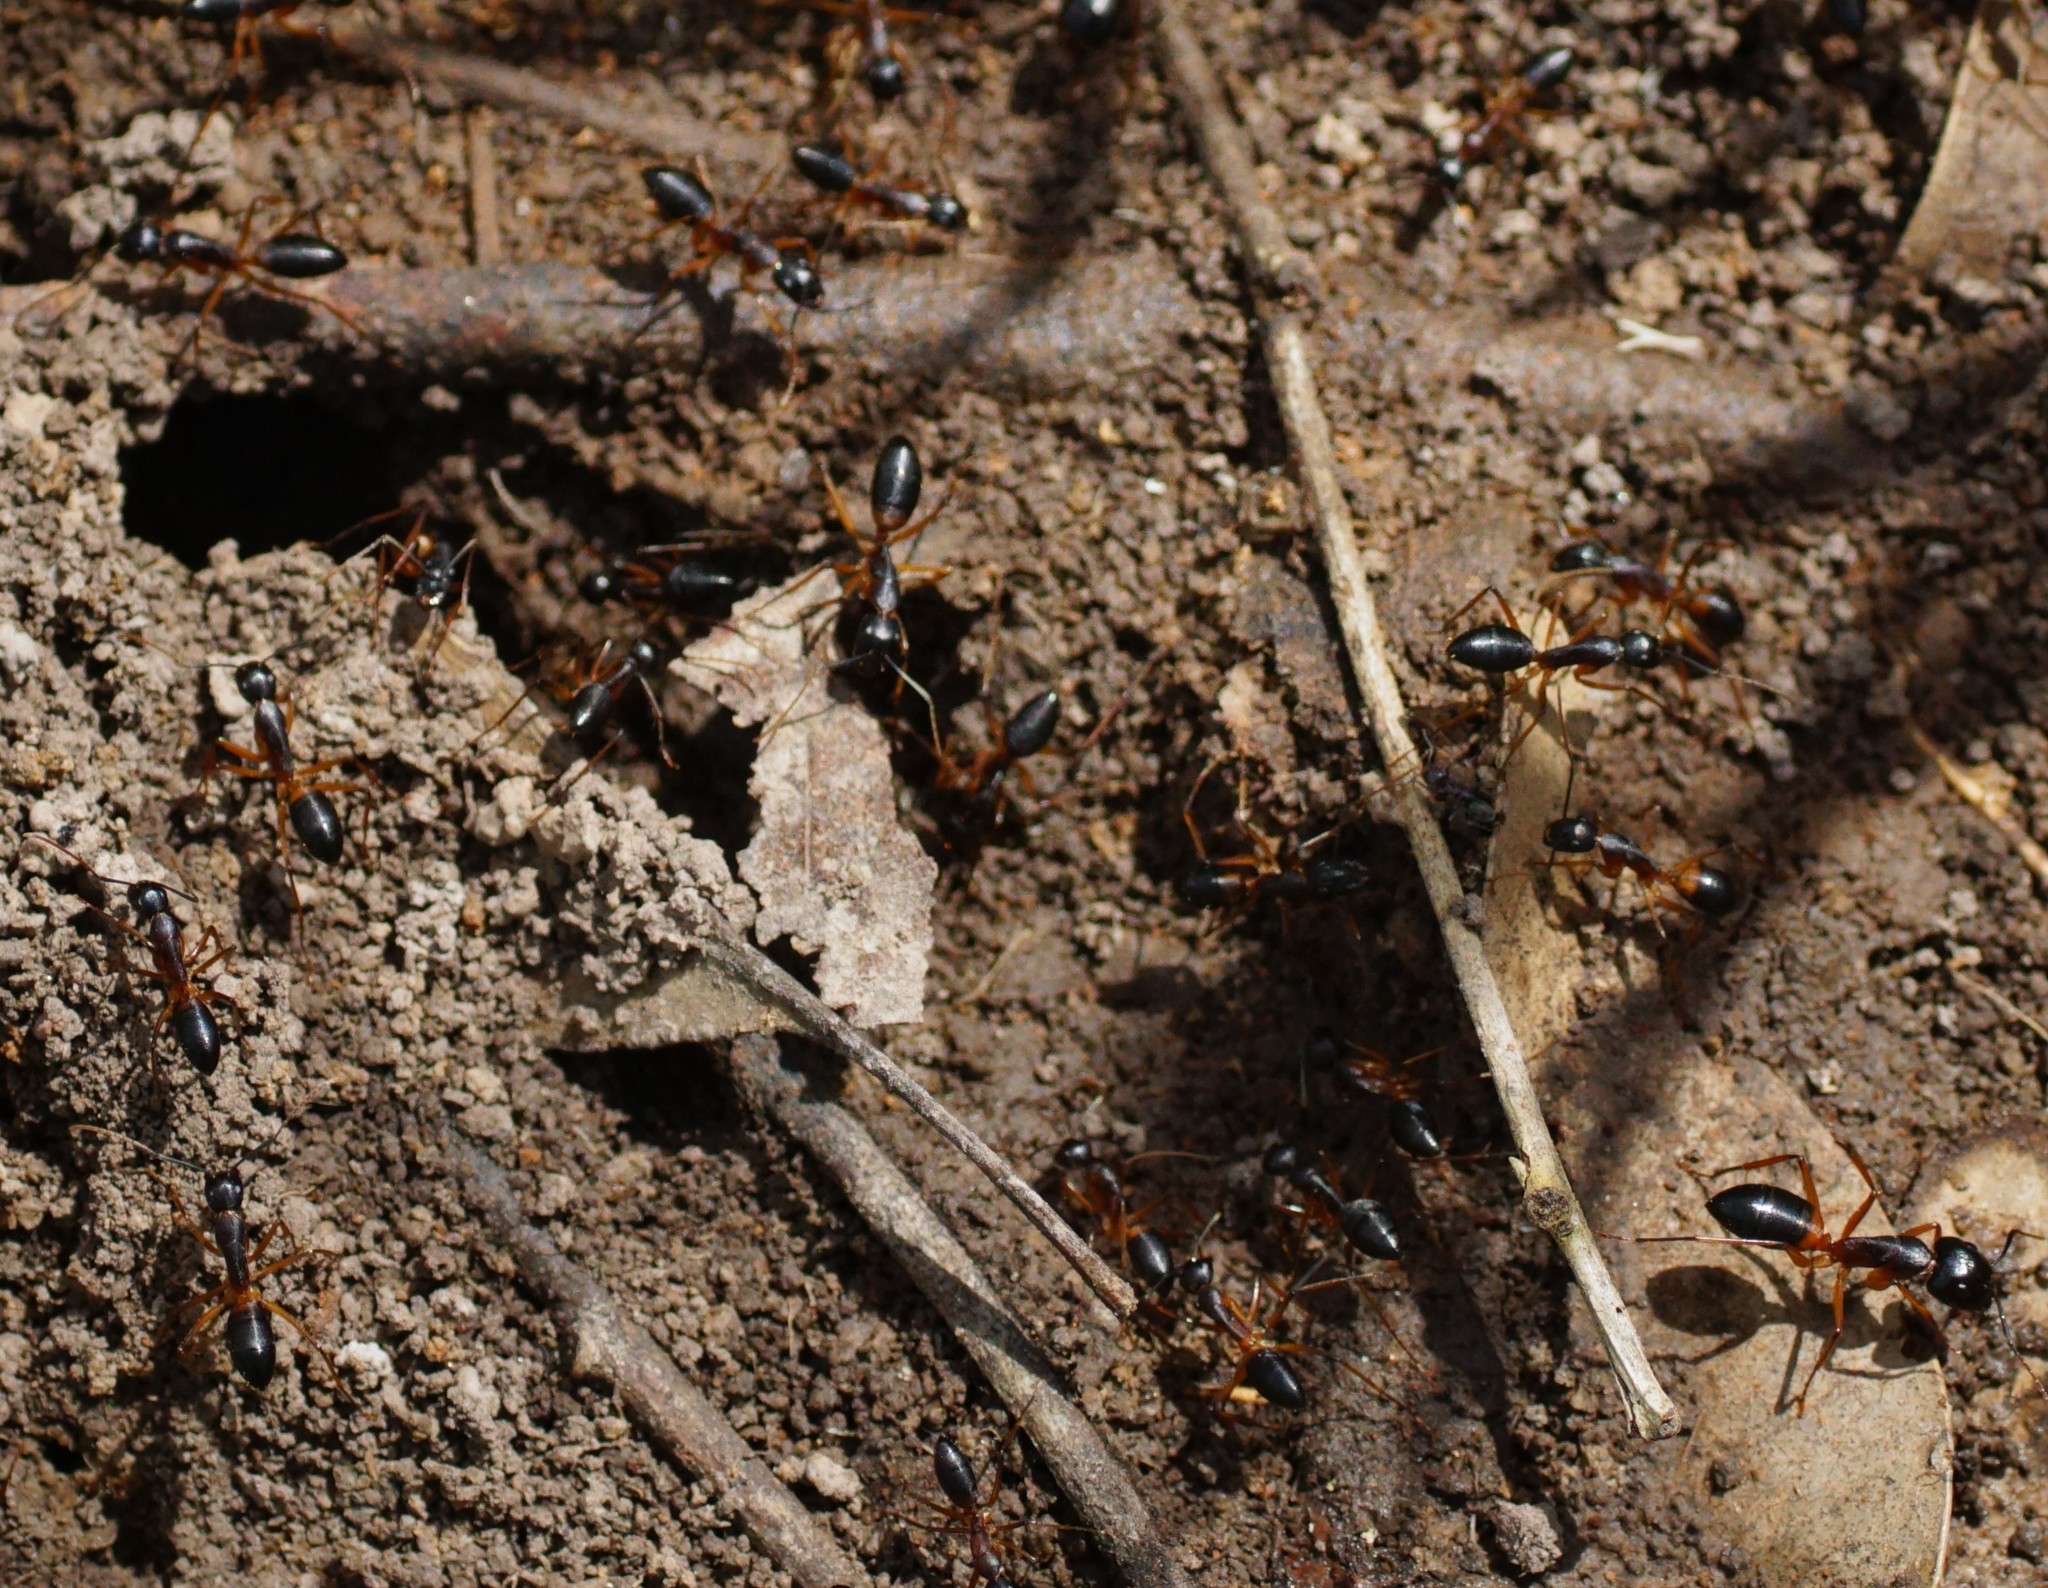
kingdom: Animalia
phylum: Arthropoda
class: Insecta
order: Hymenoptera
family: Formicidae
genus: Camponotus
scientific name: Camponotus consobrinus
